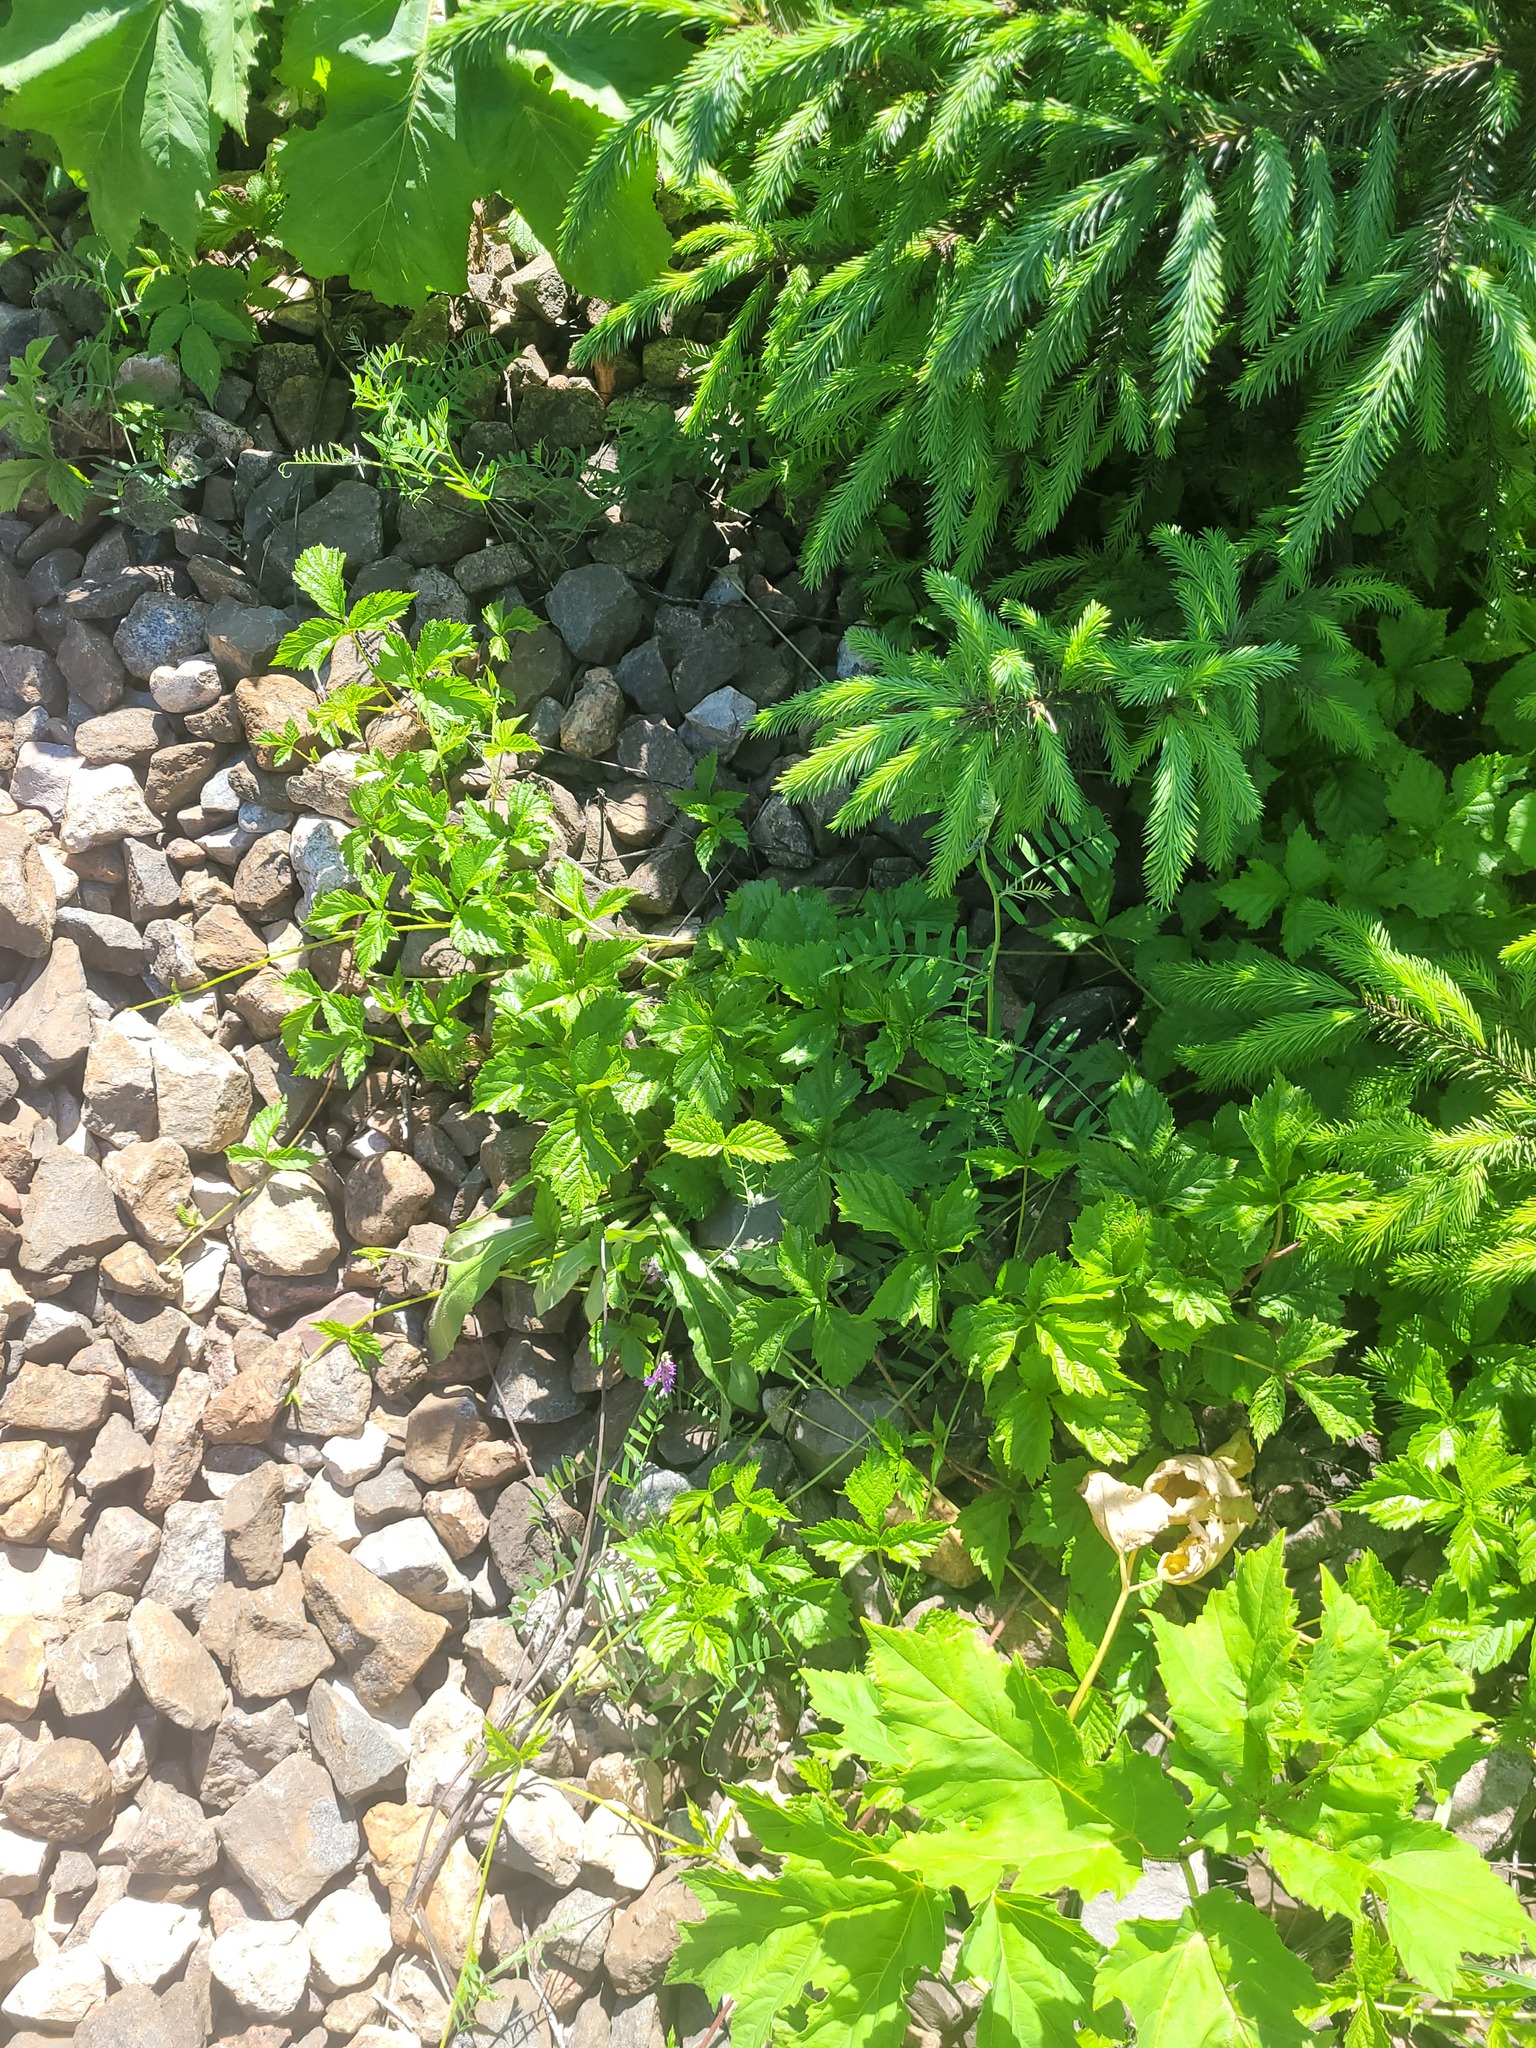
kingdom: Plantae
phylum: Tracheophyta
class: Magnoliopsida
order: Rosales
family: Rosaceae
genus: Rubus
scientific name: Rubus saxatilis
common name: Stone bramble
